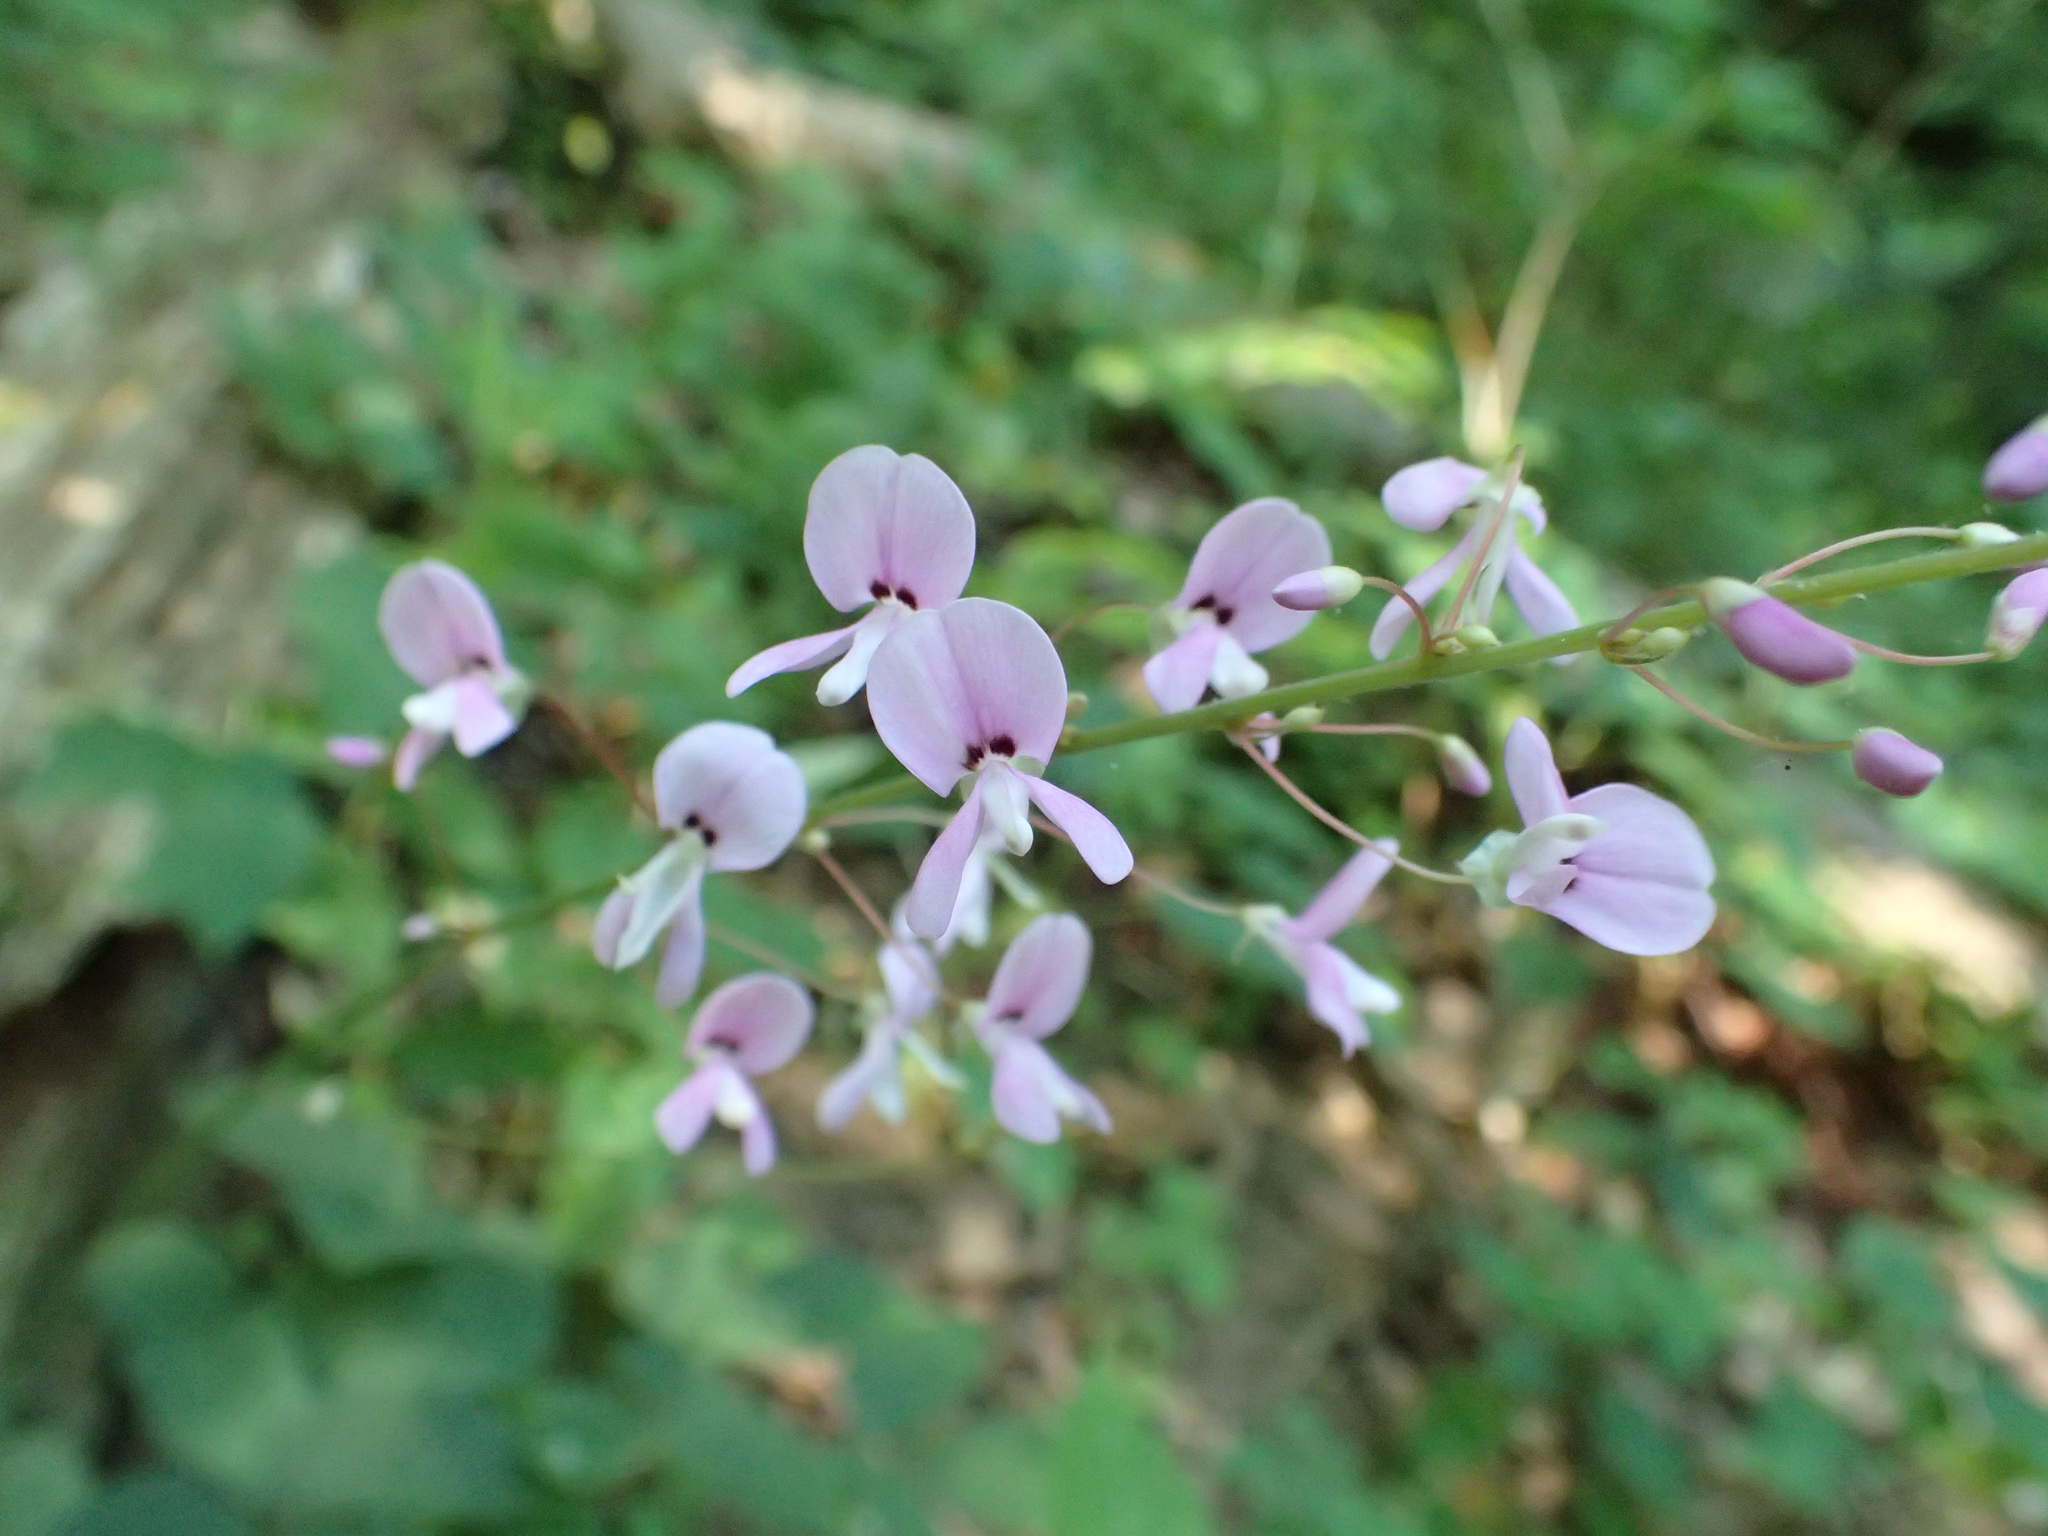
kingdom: Plantae
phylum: Tracheophyta
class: Magnoliopsida
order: Fabales
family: Fabaceae
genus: Hylodesmum
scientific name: Hylodesmum nudiflorum
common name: Bare-stemmed tick-trefoil
